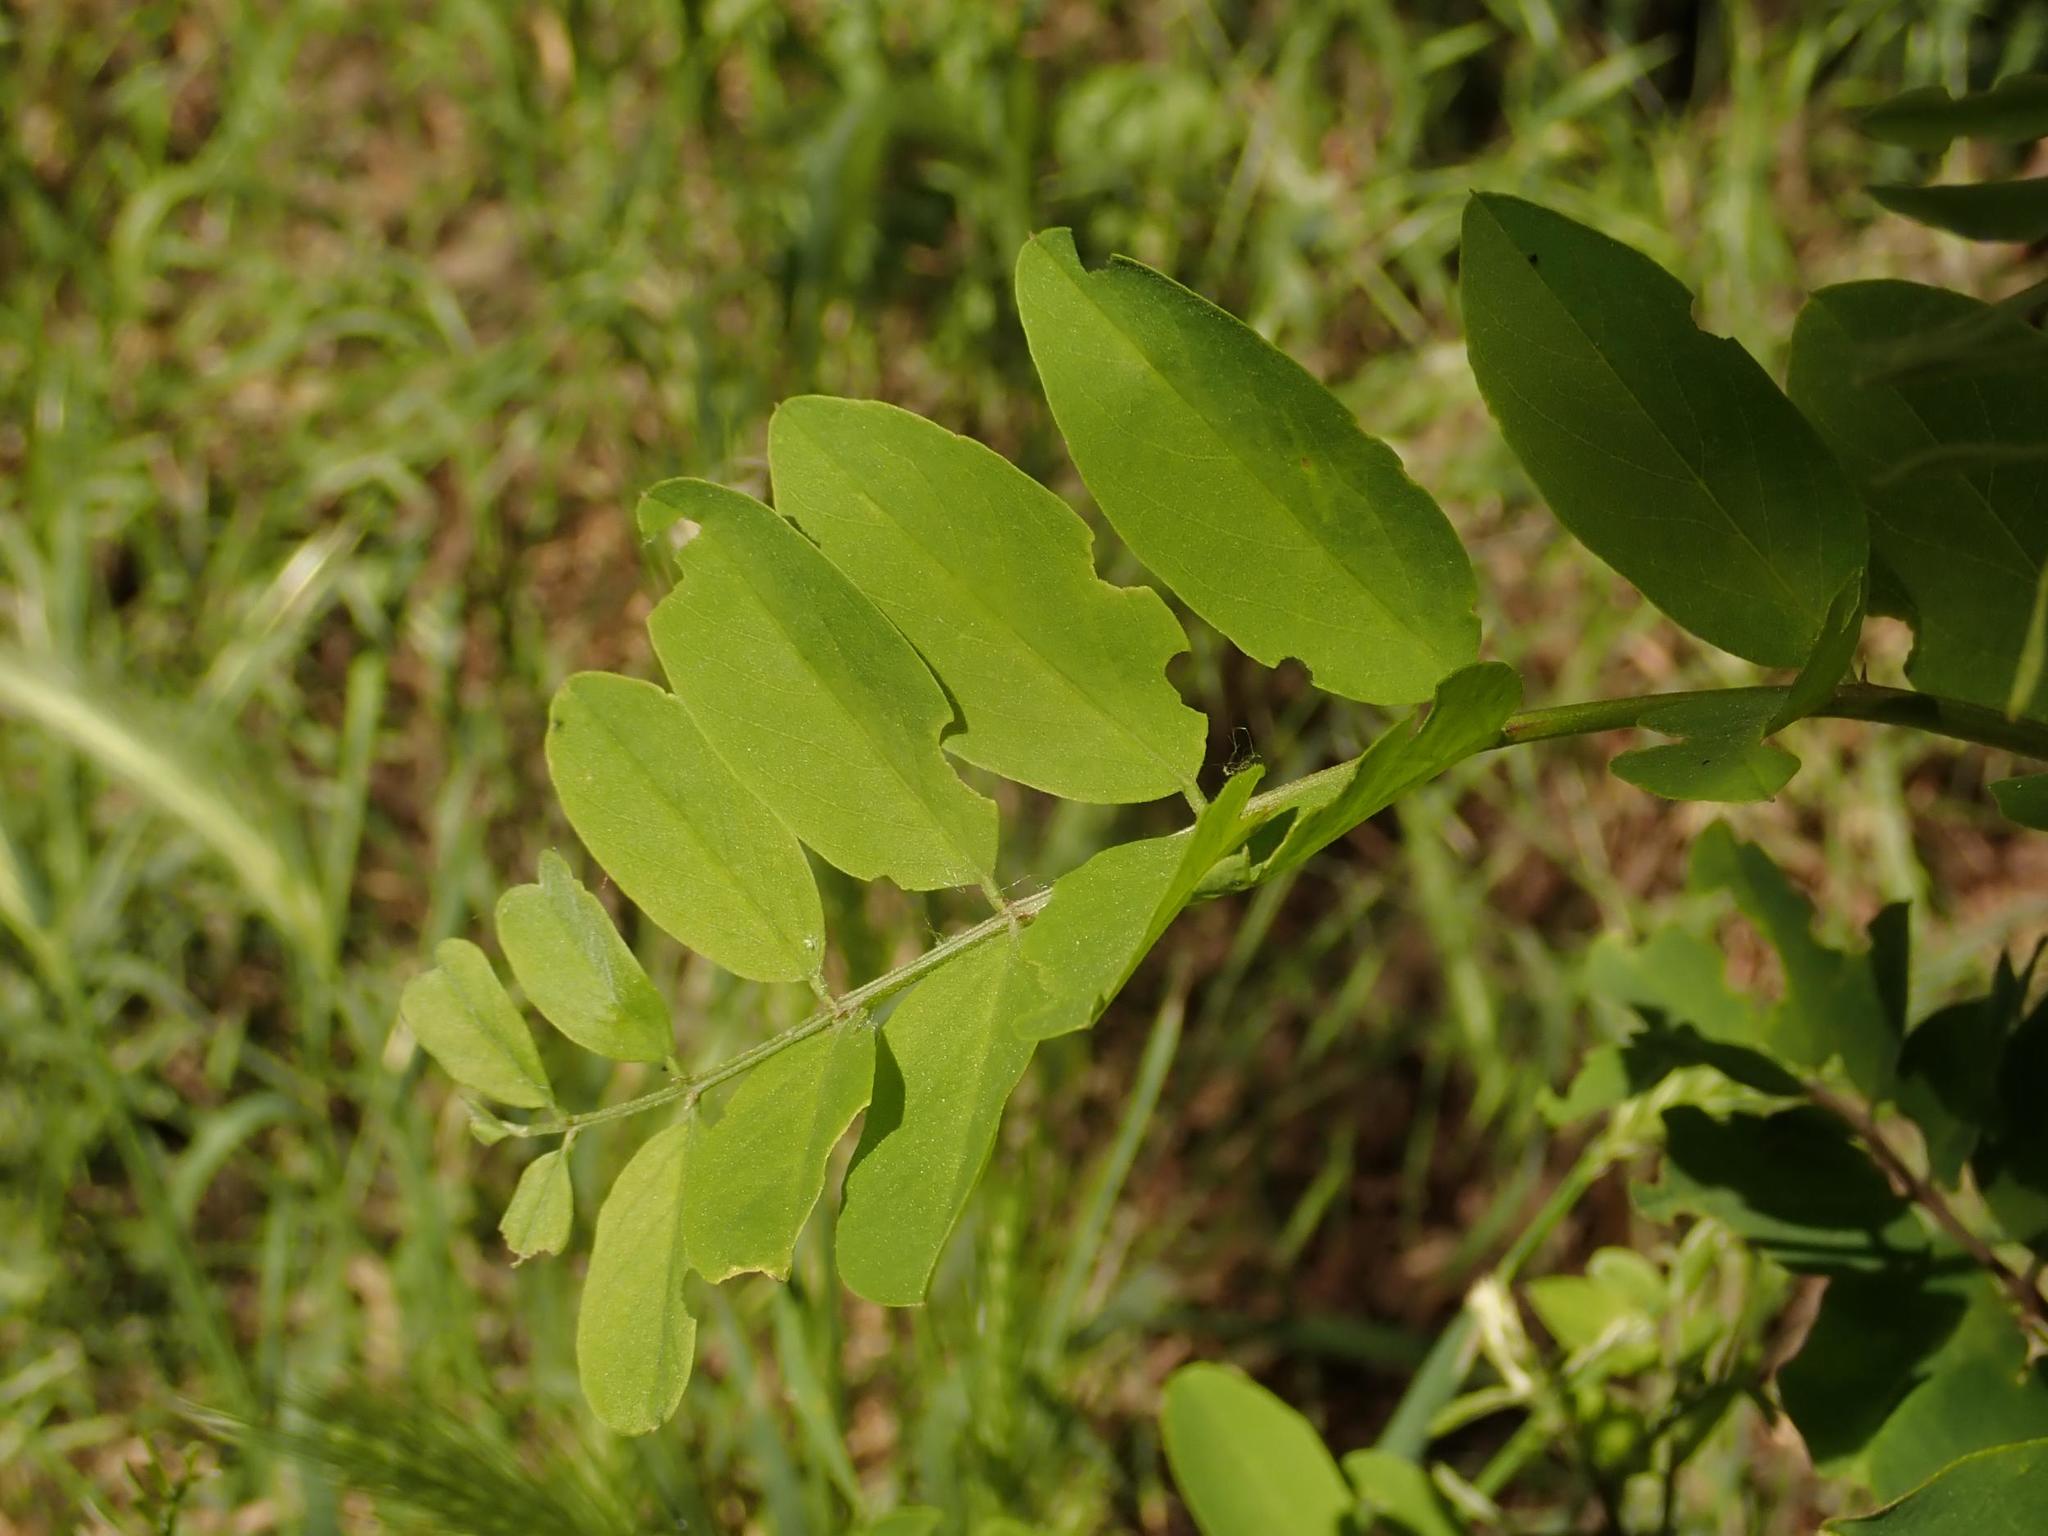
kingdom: Plantae
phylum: Tracheophyta
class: Magnoliopsida
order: Fabales
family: Fabaceae
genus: Robinia
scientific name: Robinia pseudoacacia
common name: Black locust
